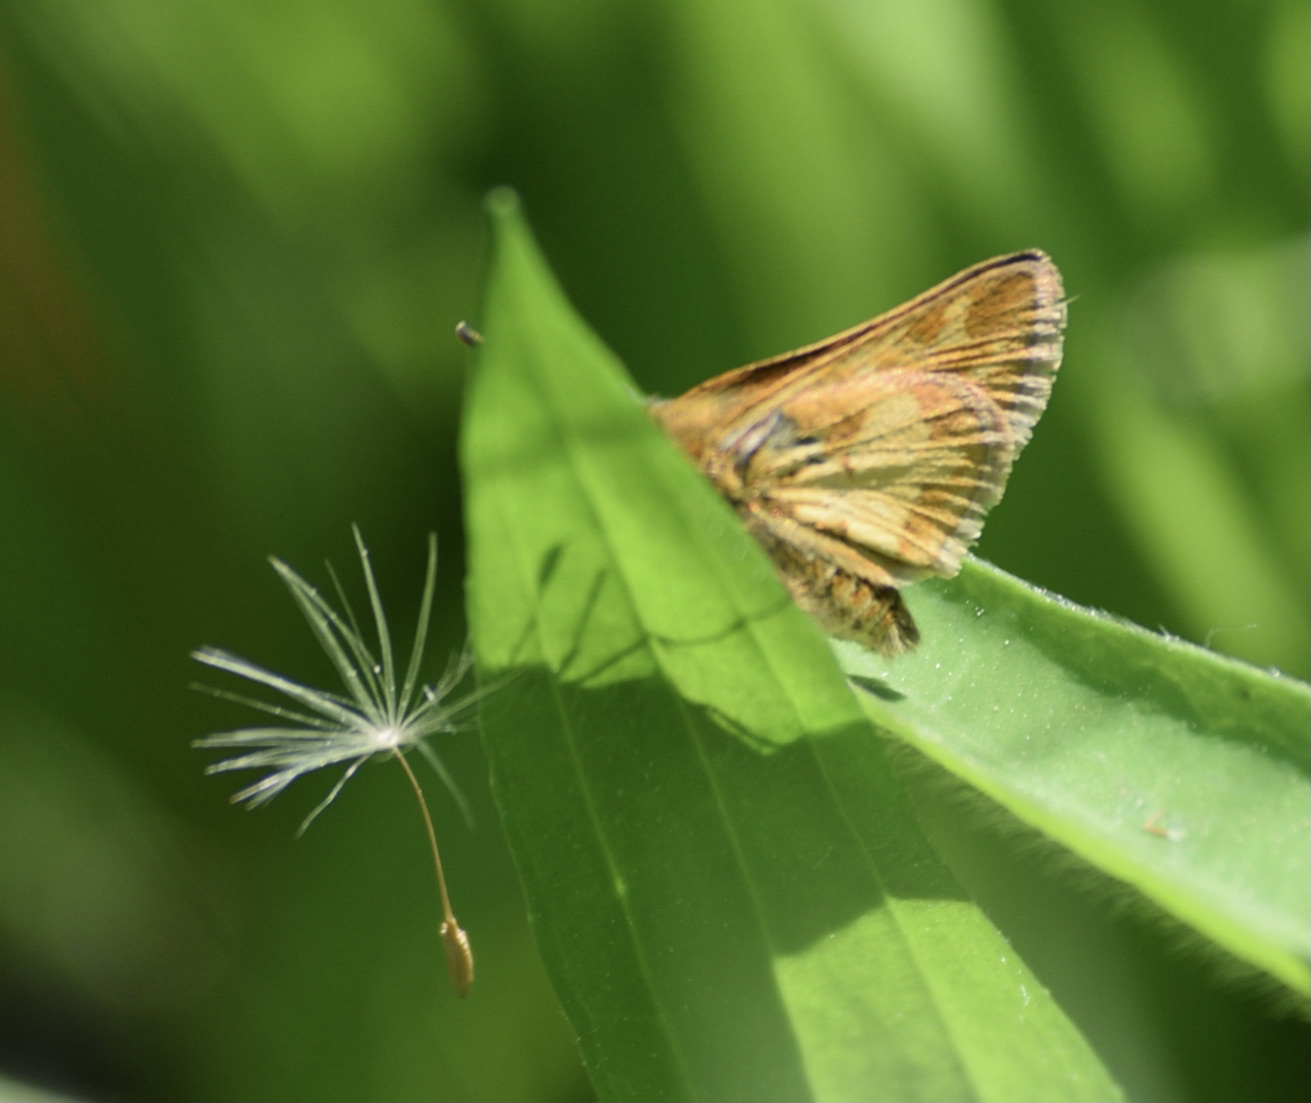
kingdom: Animalia
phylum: Arthropoda
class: Insecta
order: Lepidoptera
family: Hesperiidae
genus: Polites
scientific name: Polites coras
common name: Peck's skipper
